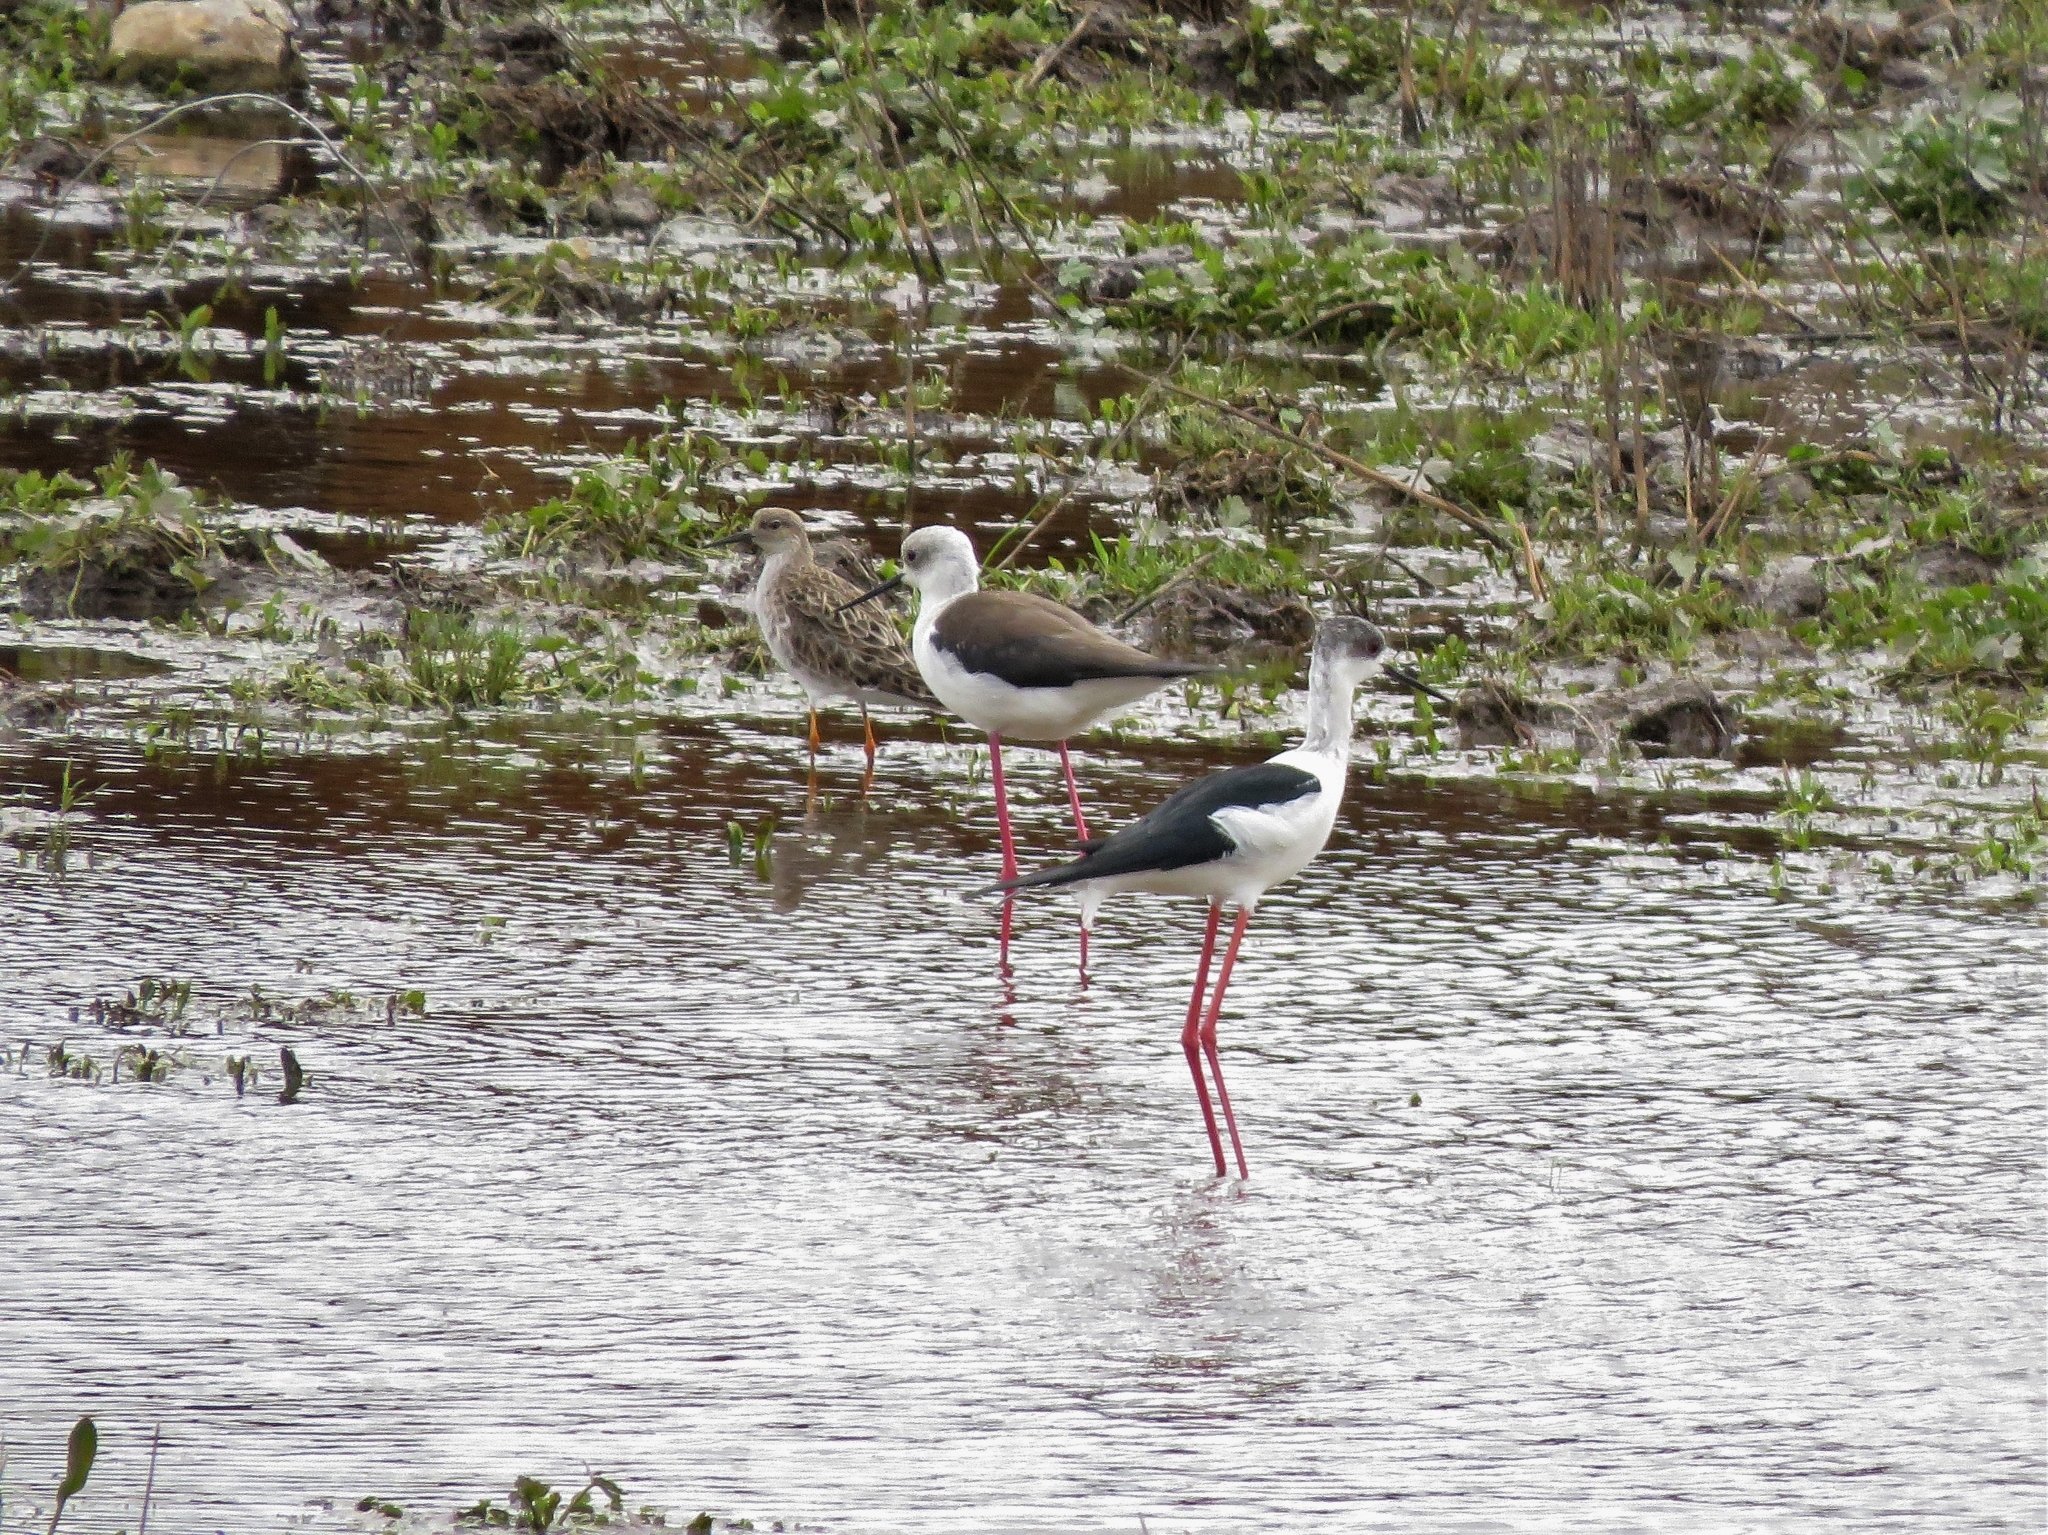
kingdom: Animalia
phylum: Chordata
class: Aves
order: Charadriiformes
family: Recurvirostridae
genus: Himantopus
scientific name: Himantopus himantopus
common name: Black-winged stilt
